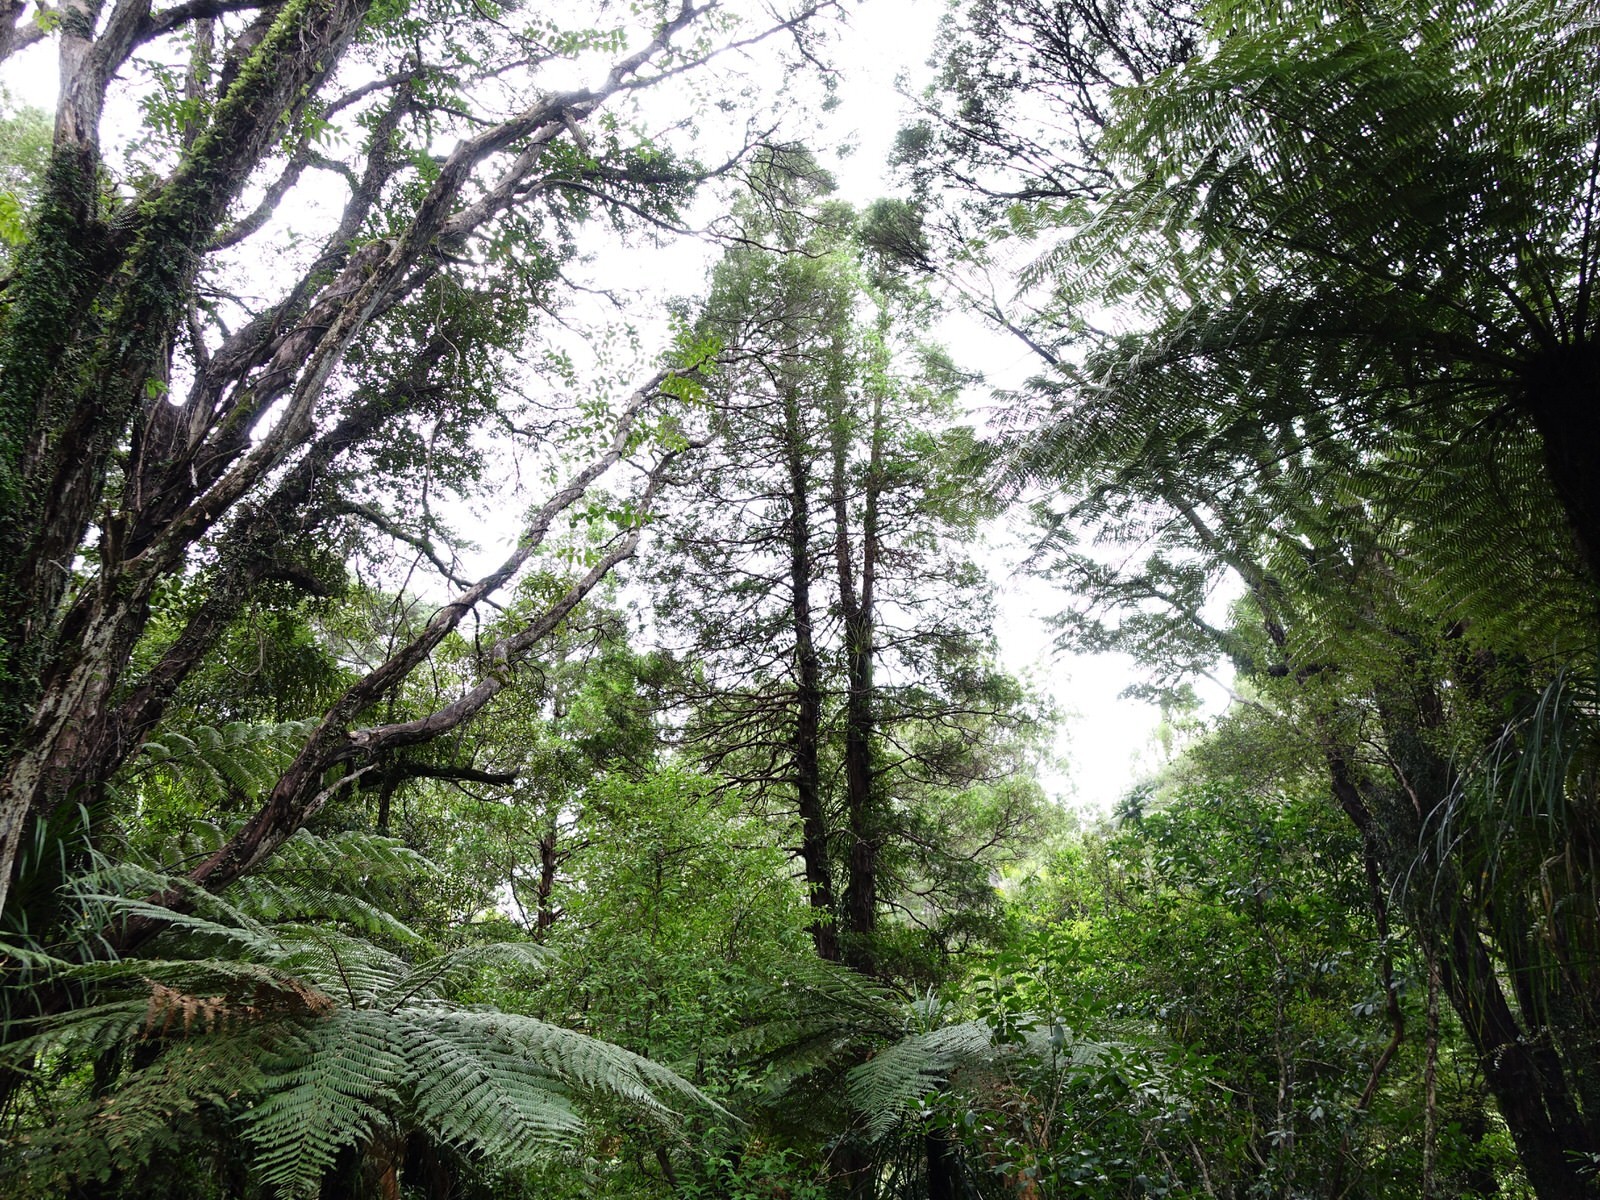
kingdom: Plantae
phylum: Tracheophyta
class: Pinopsida
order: Pinales
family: Cupressaceae
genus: Libocedrus
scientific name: Libocedrus plumosa
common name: New zealand cedar
